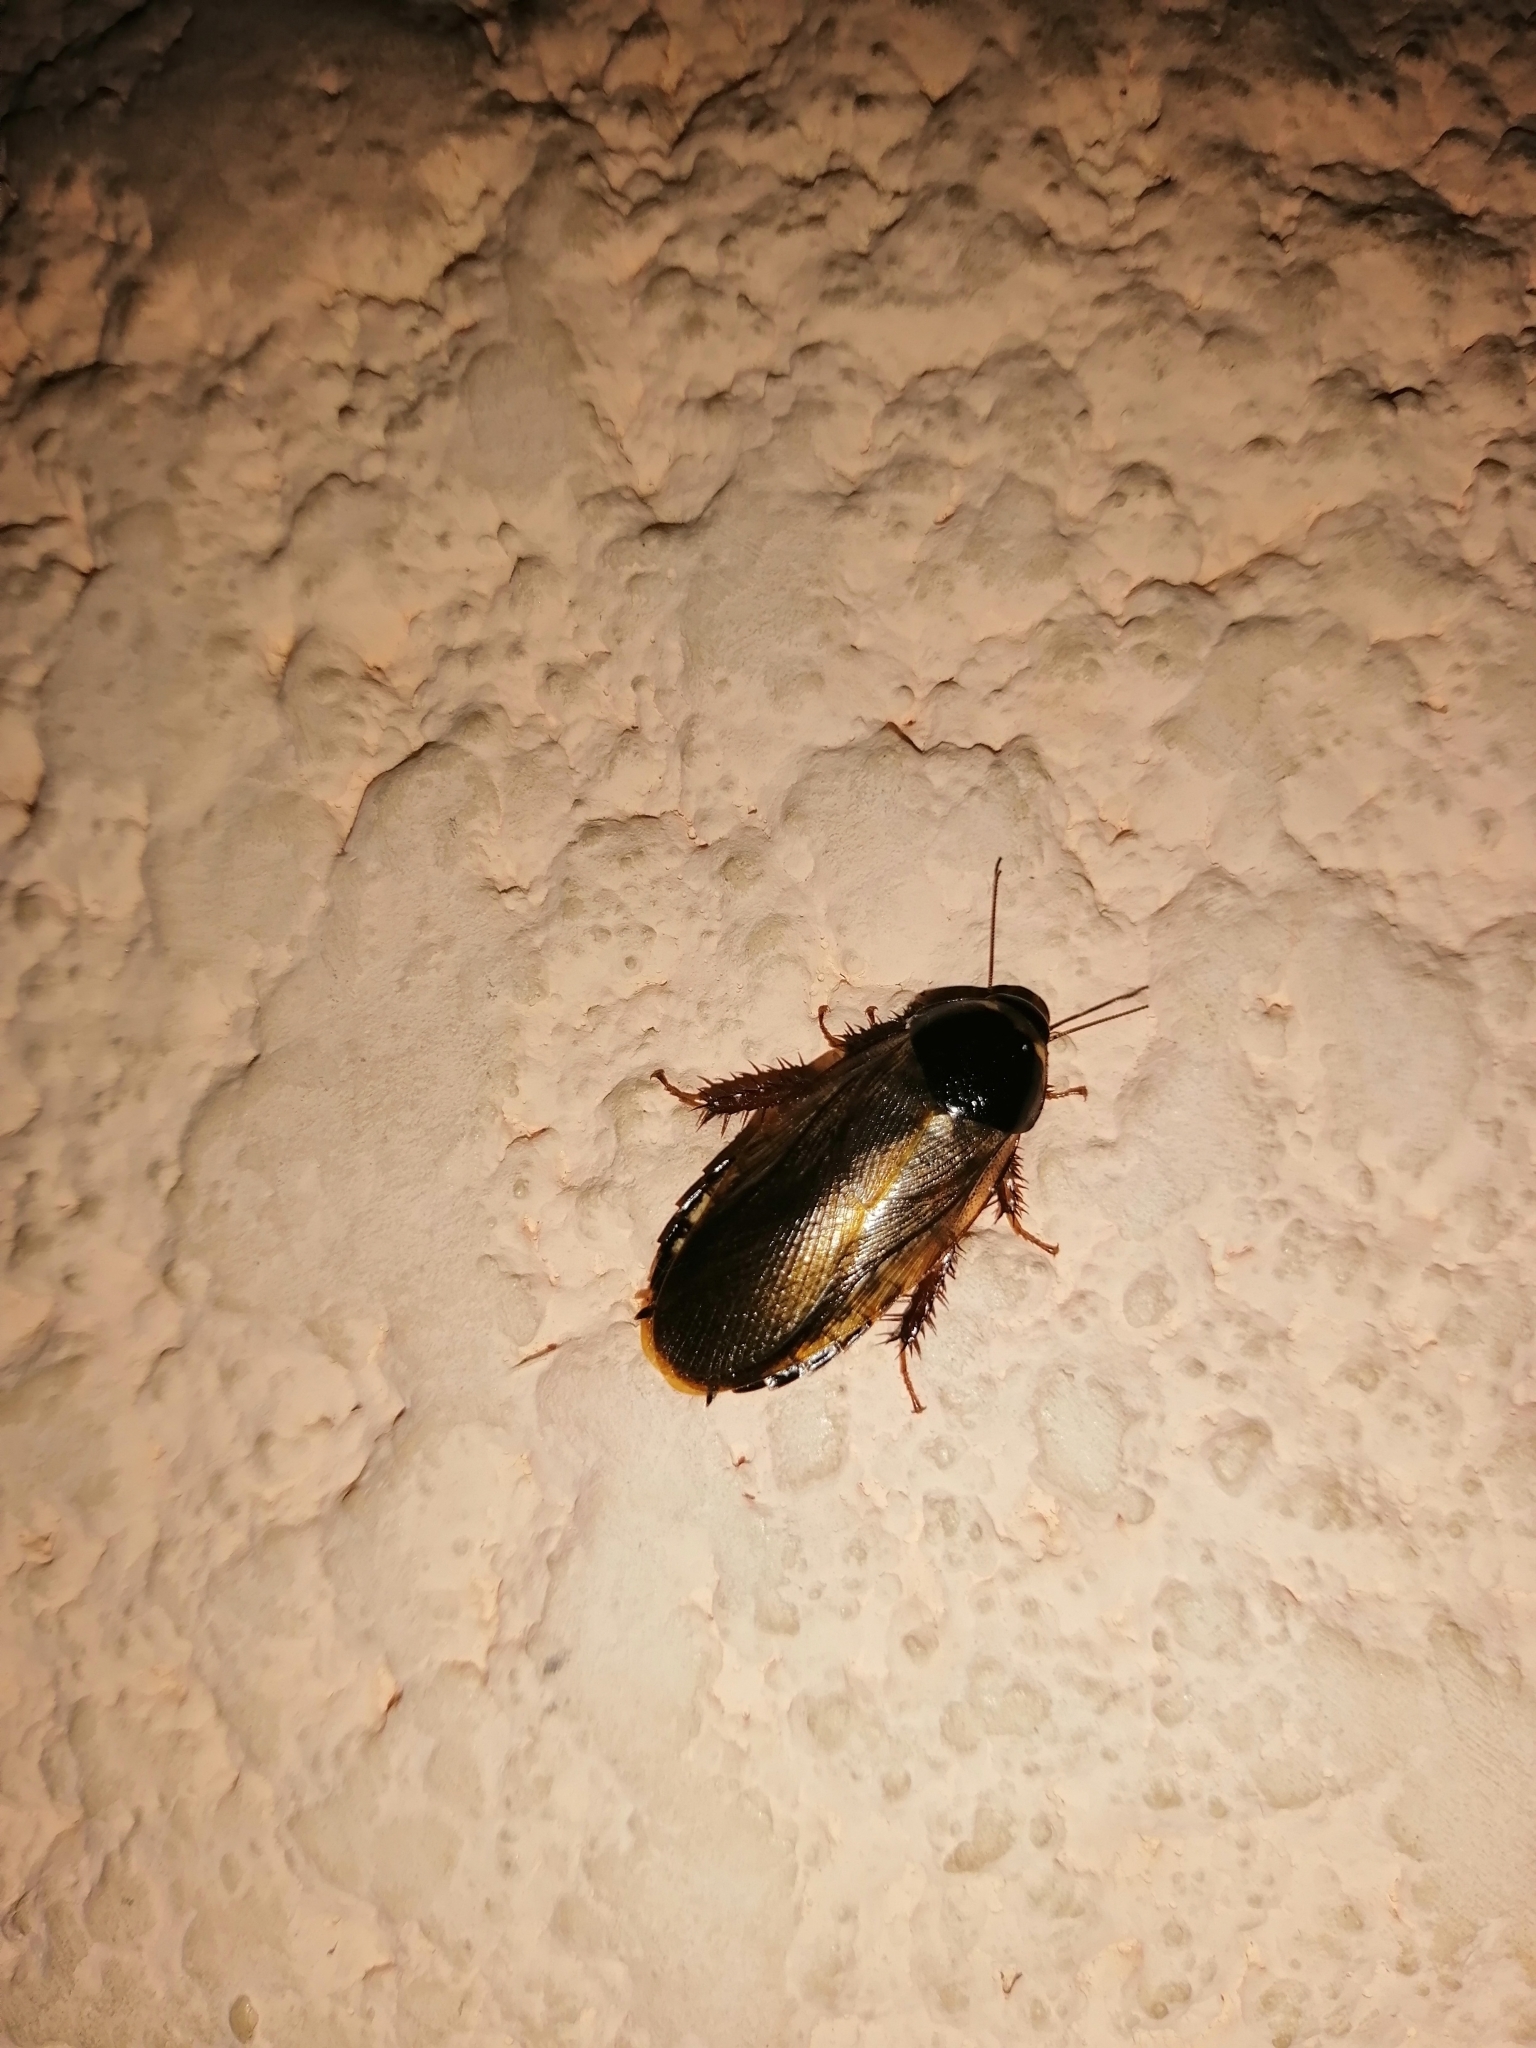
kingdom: Animalia
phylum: Arthropoda
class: Insecta
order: Blattodea
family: Blaberidae
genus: Pycnoscelus
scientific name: Pycnoscelus surinamensis
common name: Surinam cockroach
